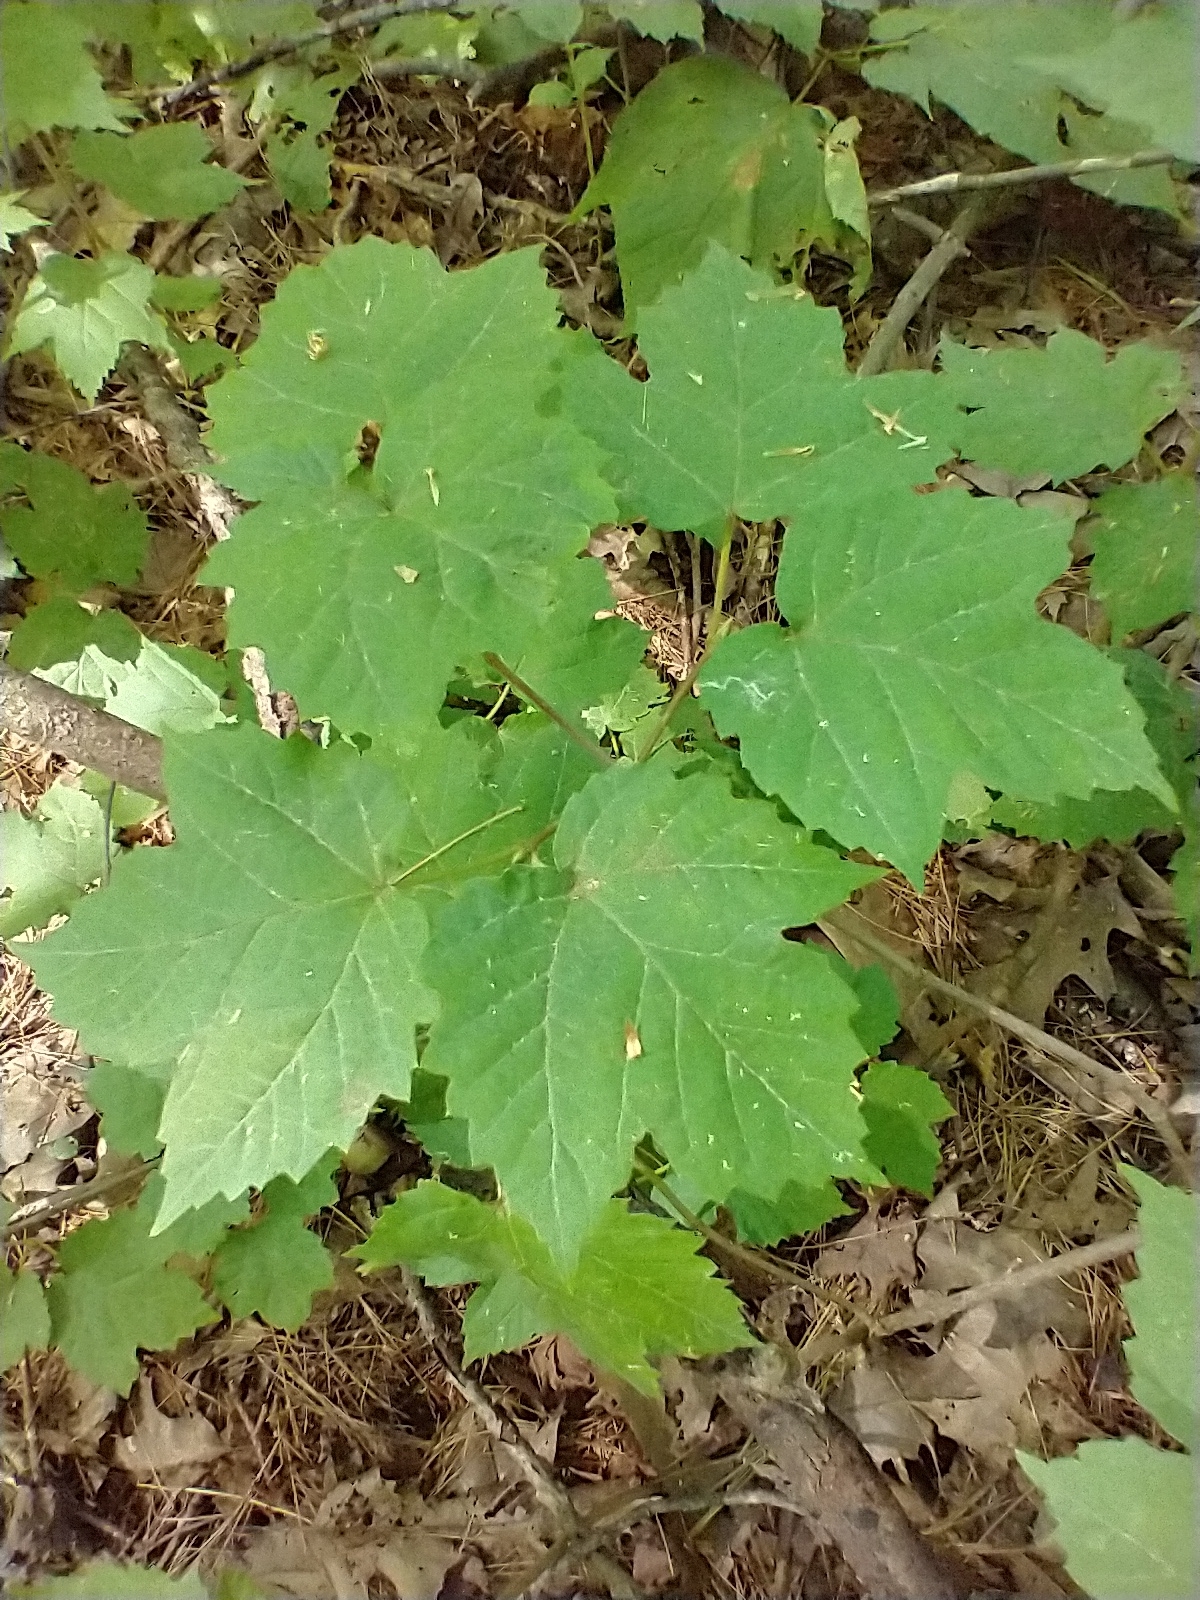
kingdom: Plantae
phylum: Tracheophyta
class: Magnoliopsida
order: Dipsacales
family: Viburnaceae
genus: Viburnum
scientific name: Viburnum acerifolium
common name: Dockmackie
